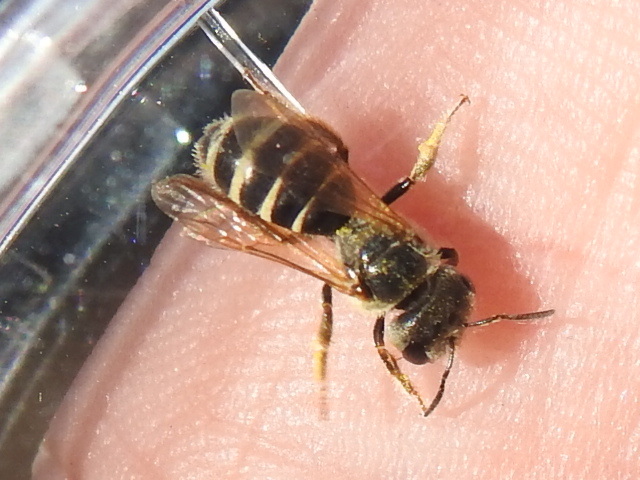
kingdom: Animalia
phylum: Arthropoda
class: Insecta
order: Hymenoptera
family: Halictidae
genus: Halictus
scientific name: Halictus ligatus
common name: Ligated furrow bee
